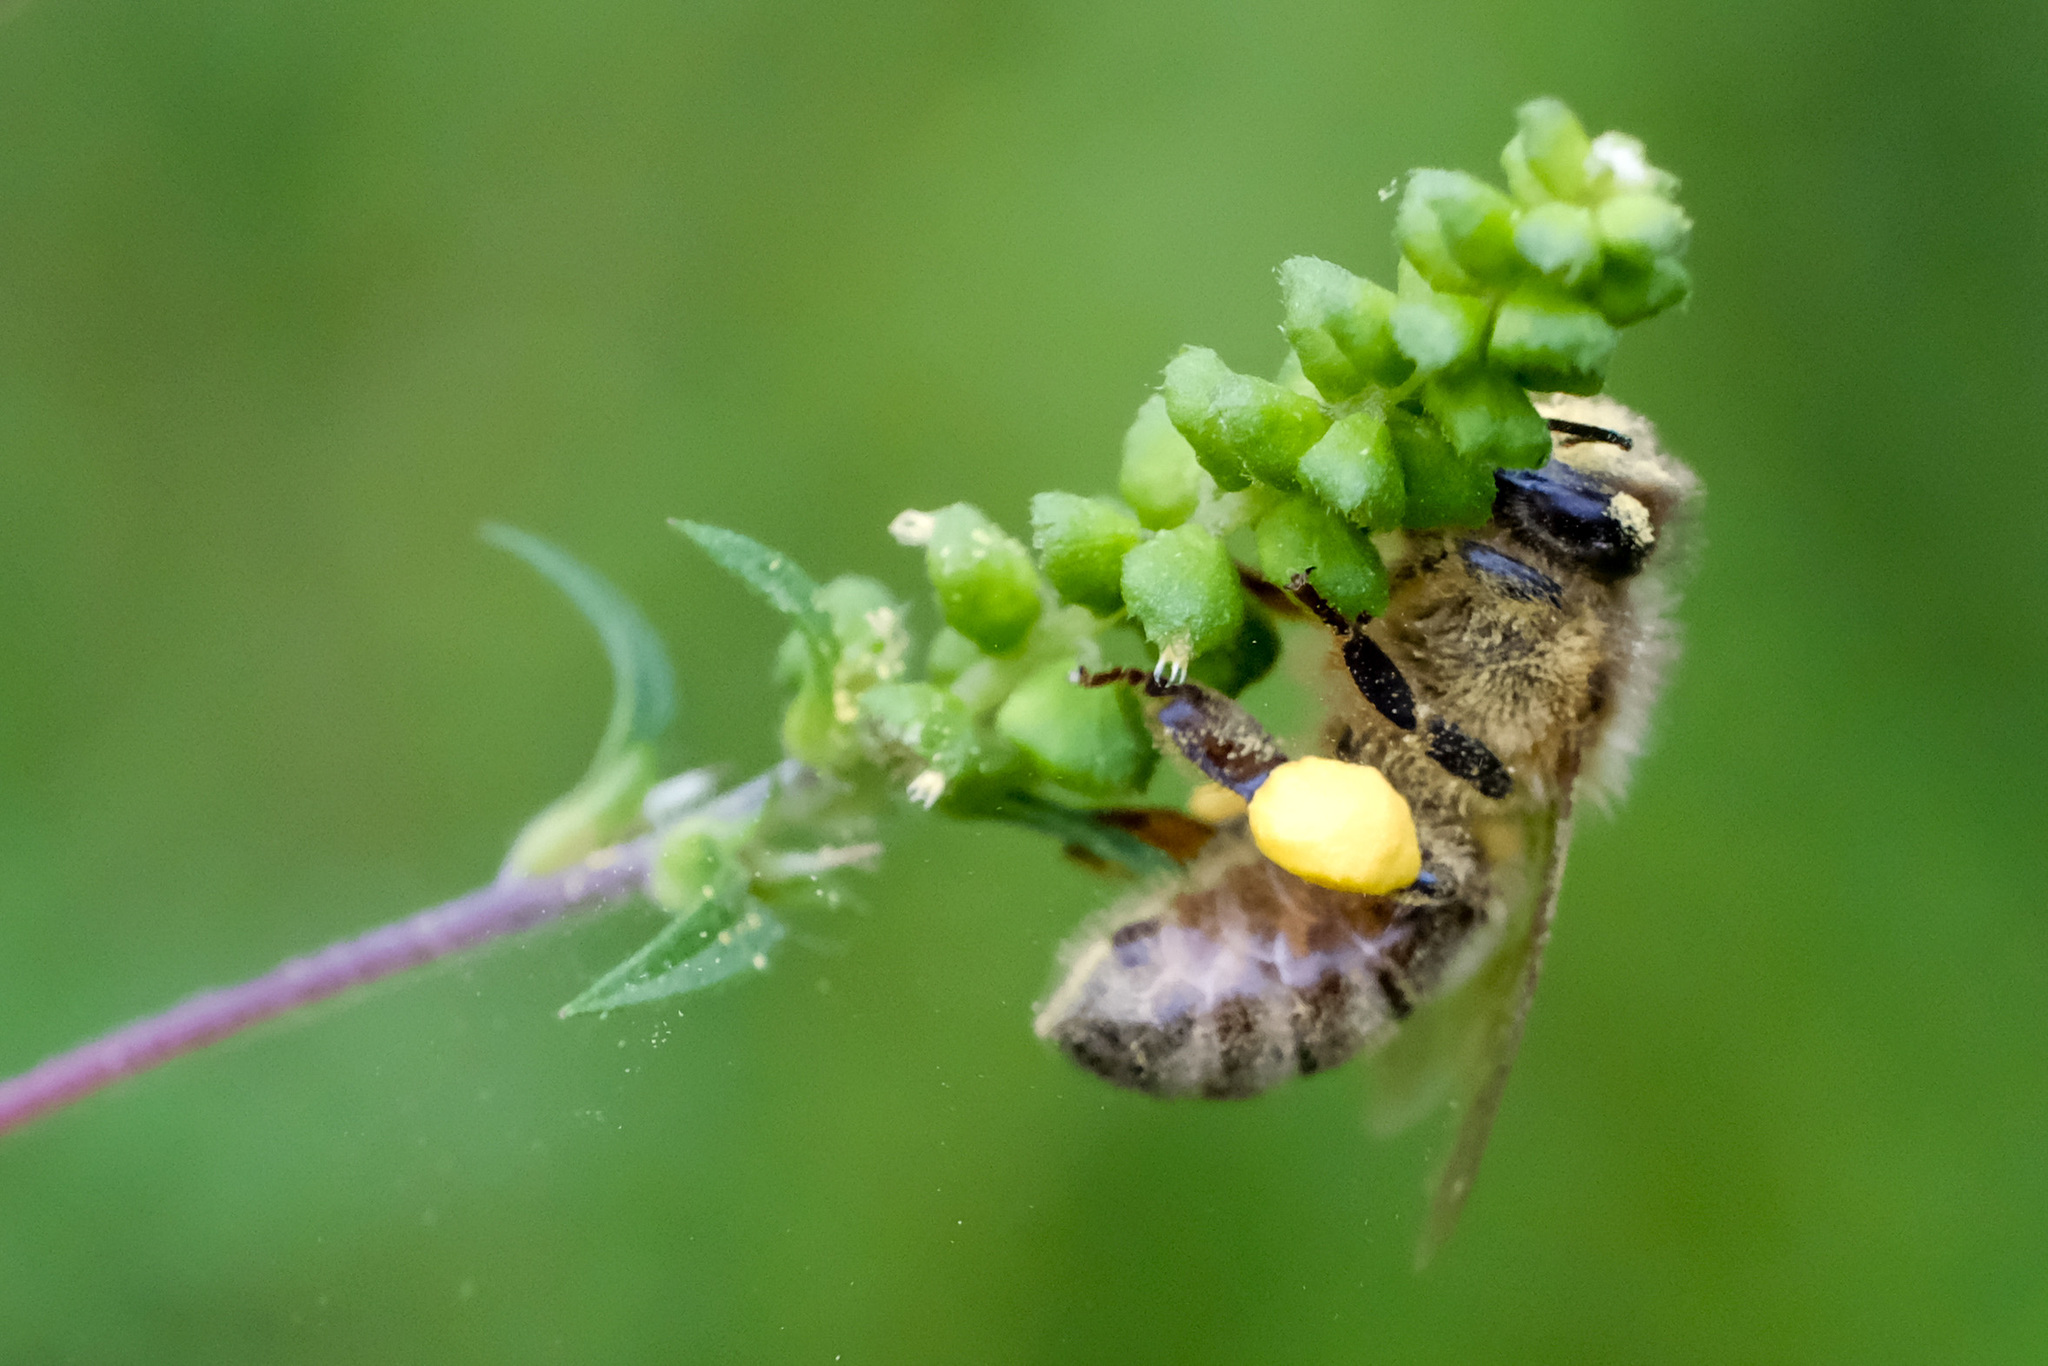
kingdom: Animalia
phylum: Arthropoda
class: Insecta
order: Hymenoptera
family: Apidae
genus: Apis
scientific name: Apis mellifera
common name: Honey bee
